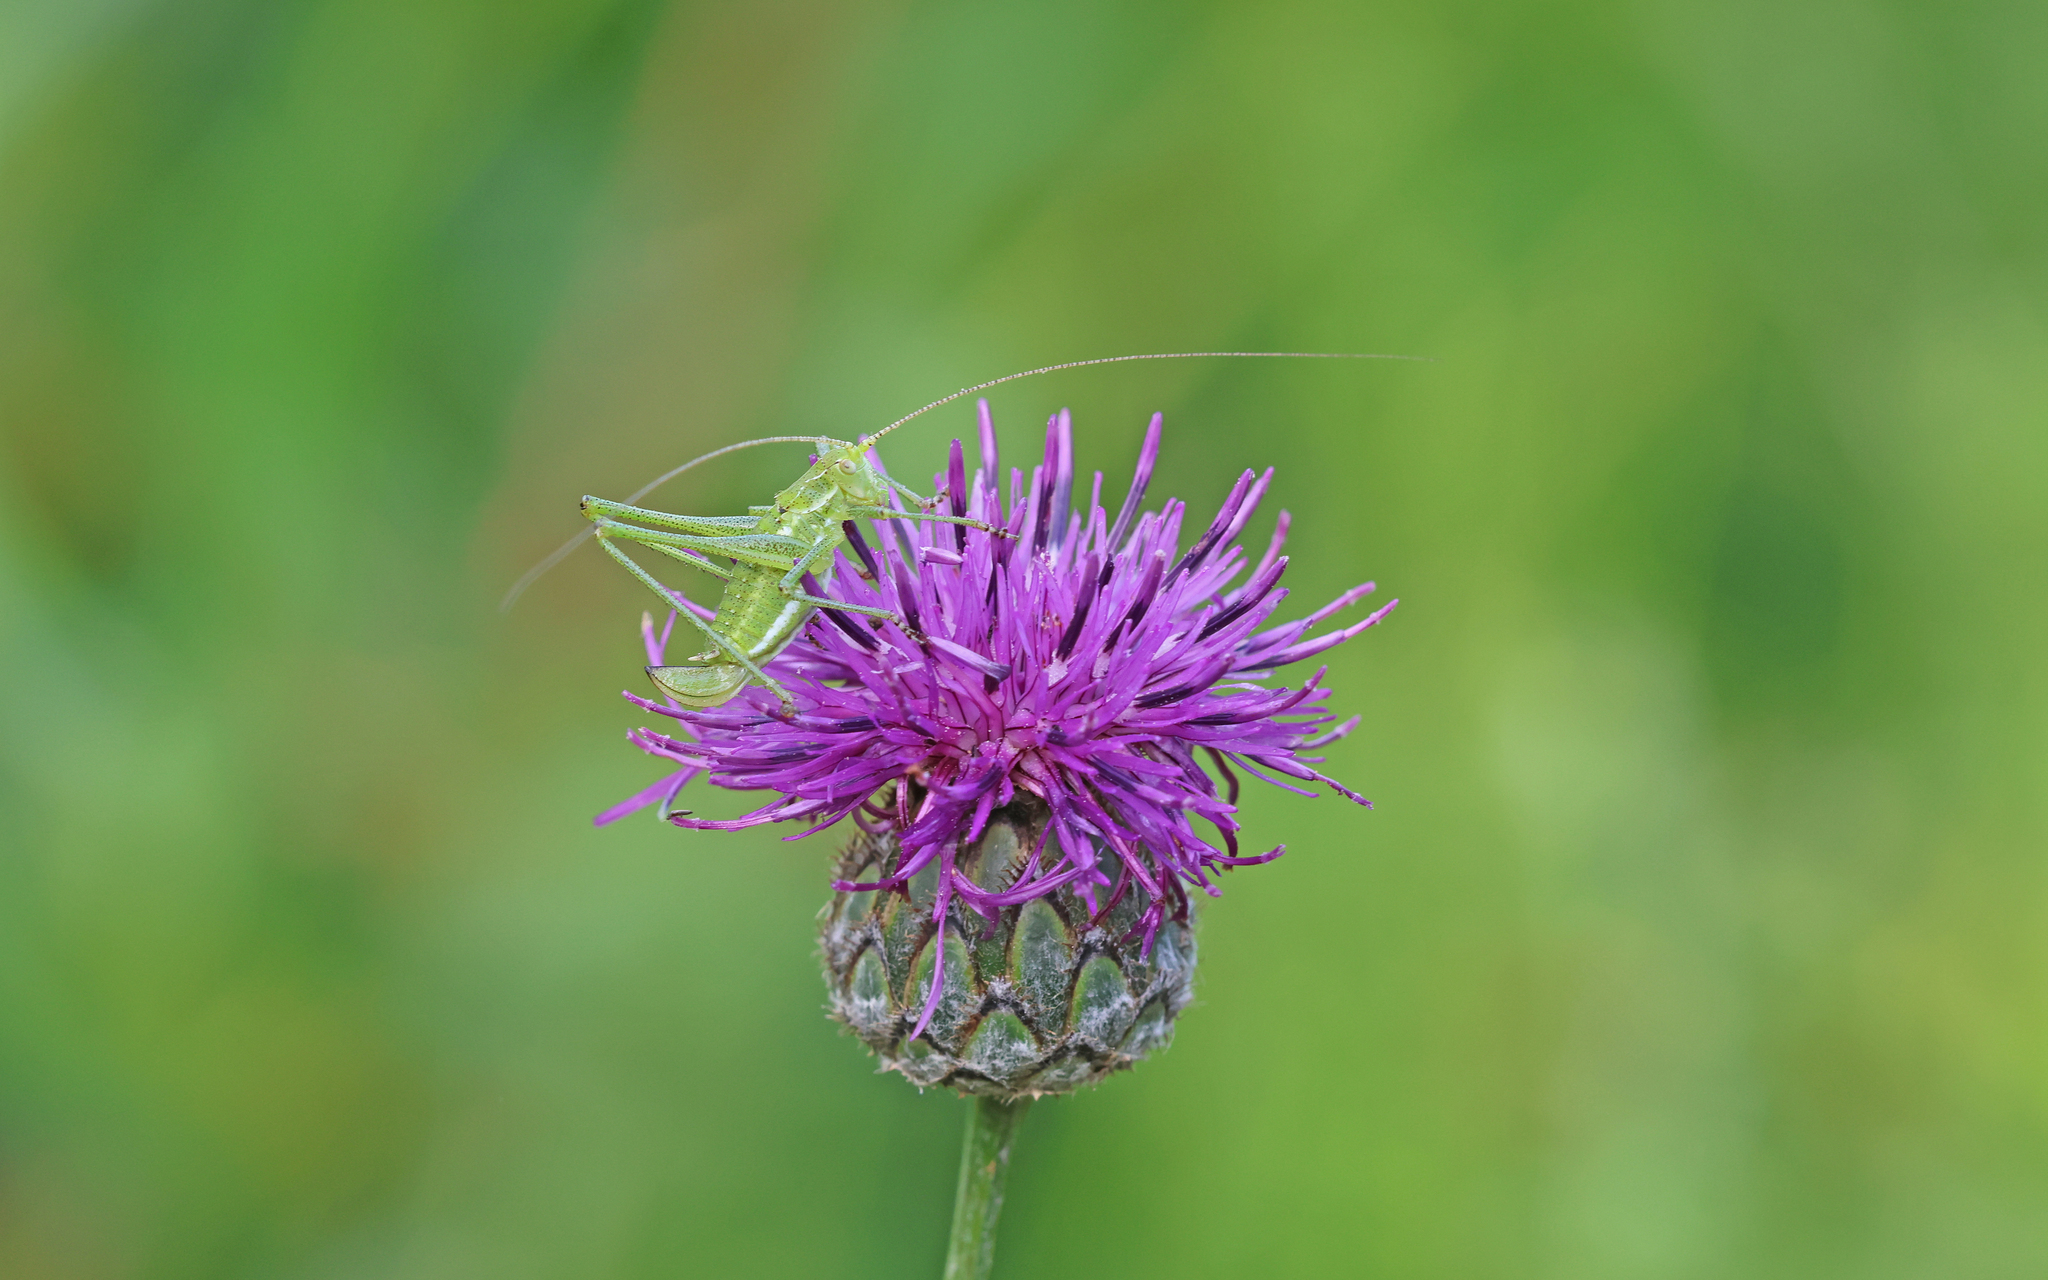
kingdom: Animalia
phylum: Arthropoda
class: Insecta
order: Orthoptera
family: Tettigoniidae
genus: Leptophyes
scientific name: Leptophyes albovittata
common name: Striped bush-cricket
